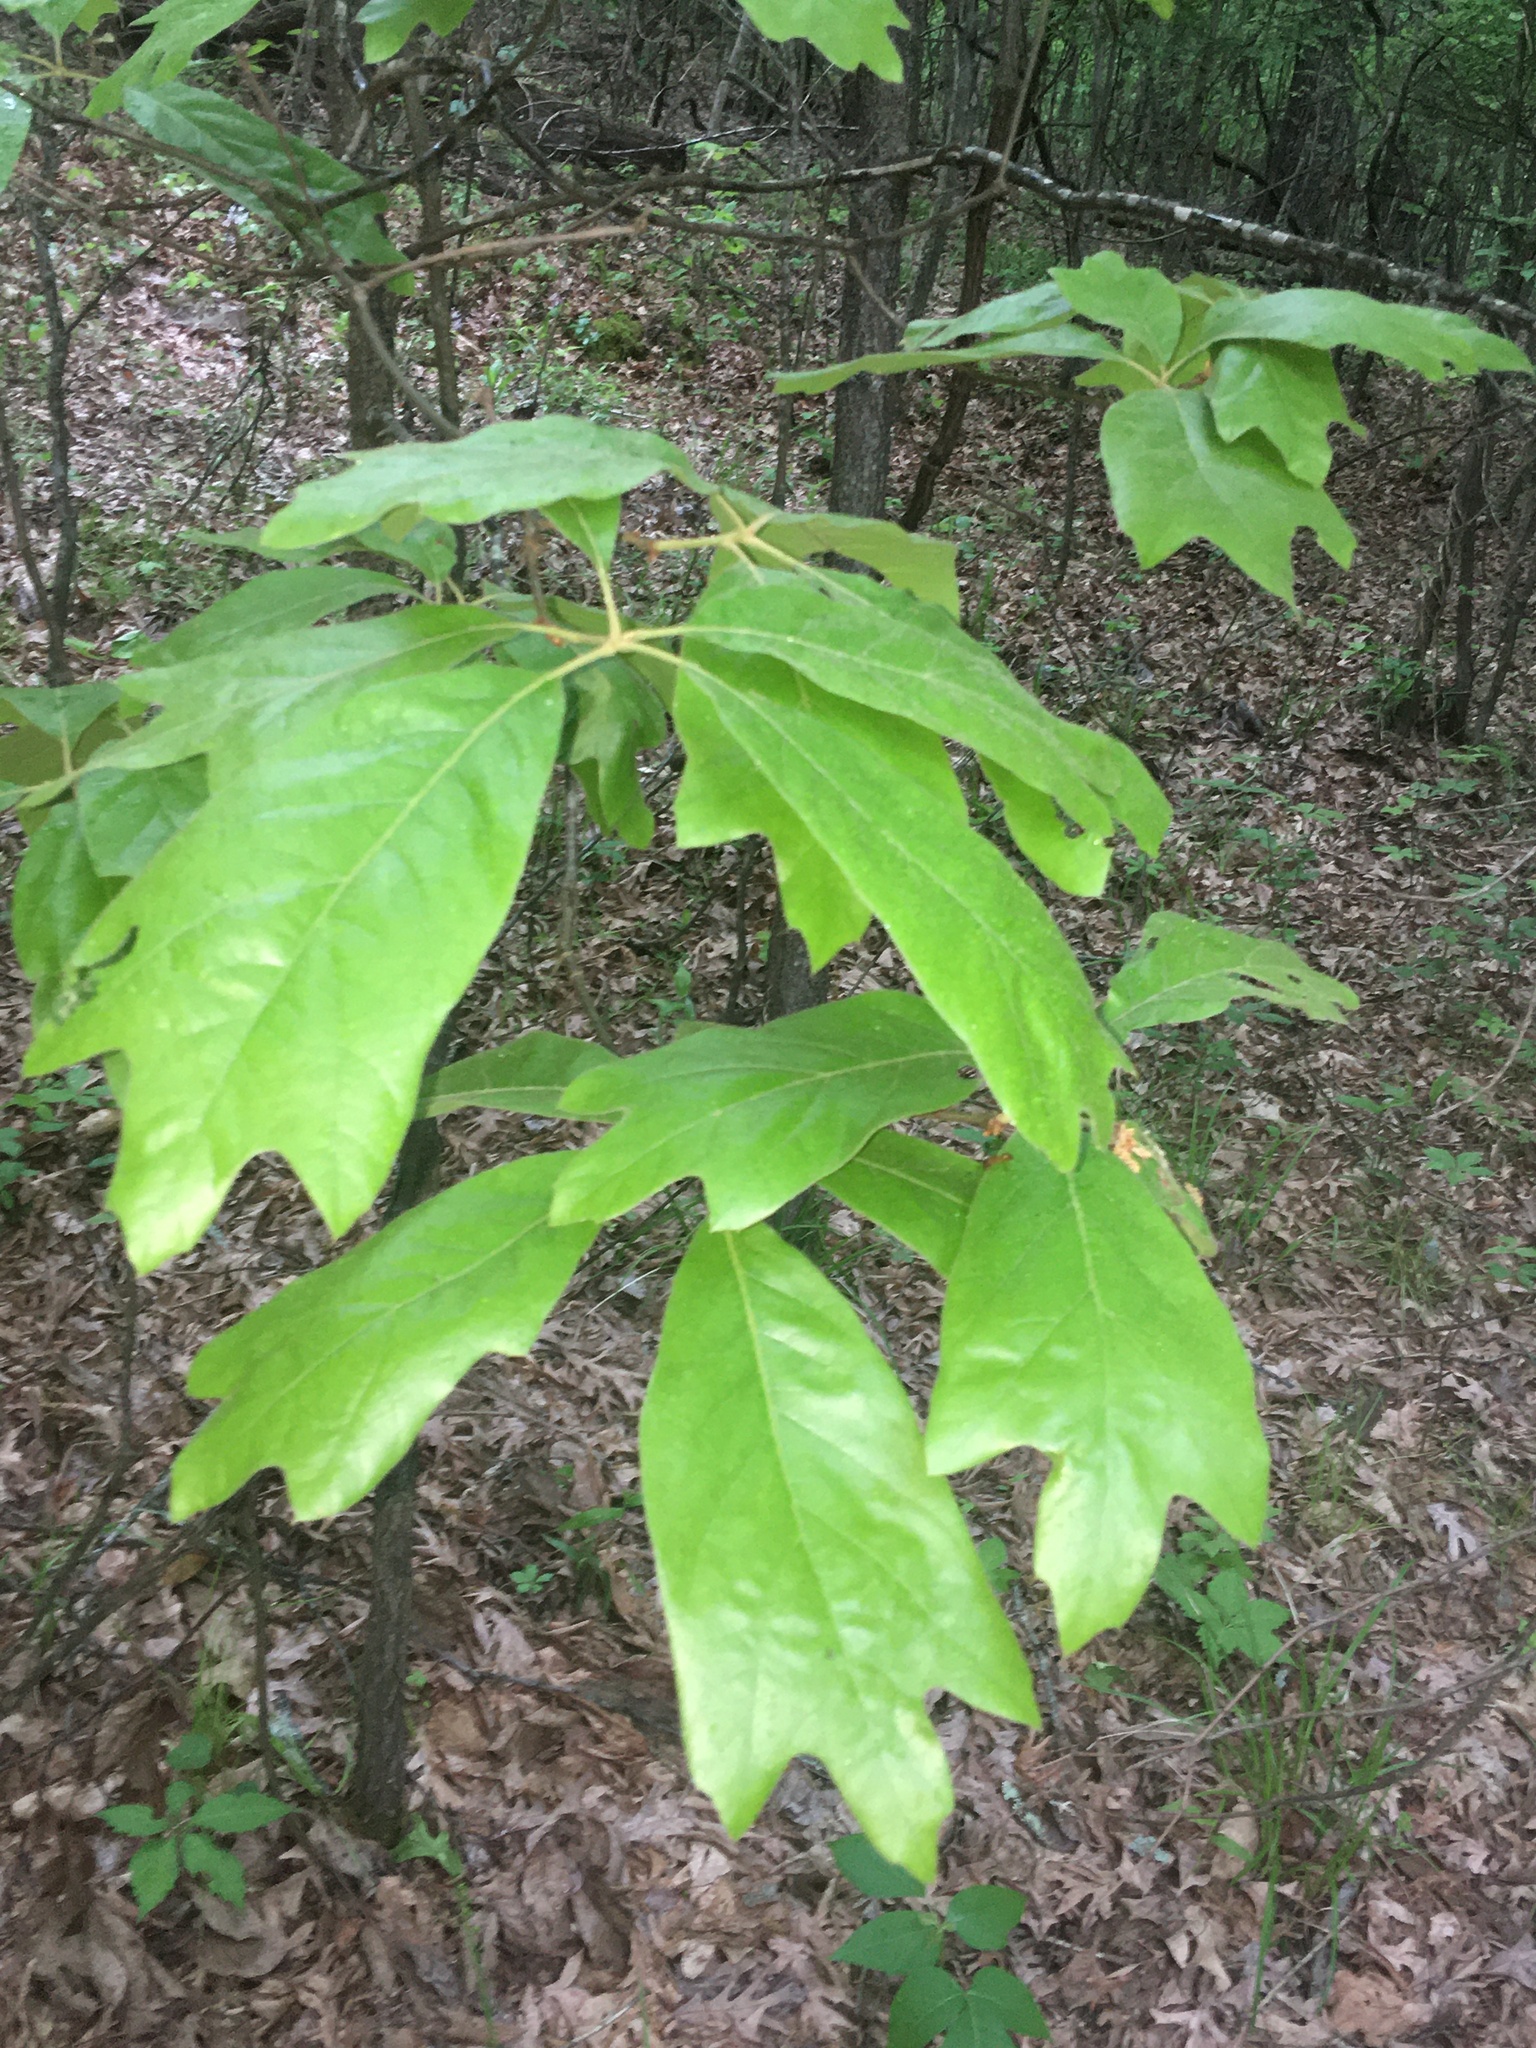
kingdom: Plantae
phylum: Tracheophyta
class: Magnoliopsida
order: Fagales
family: Fagaceae
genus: Quercus
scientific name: Quercus falcata
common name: Southern red oak
